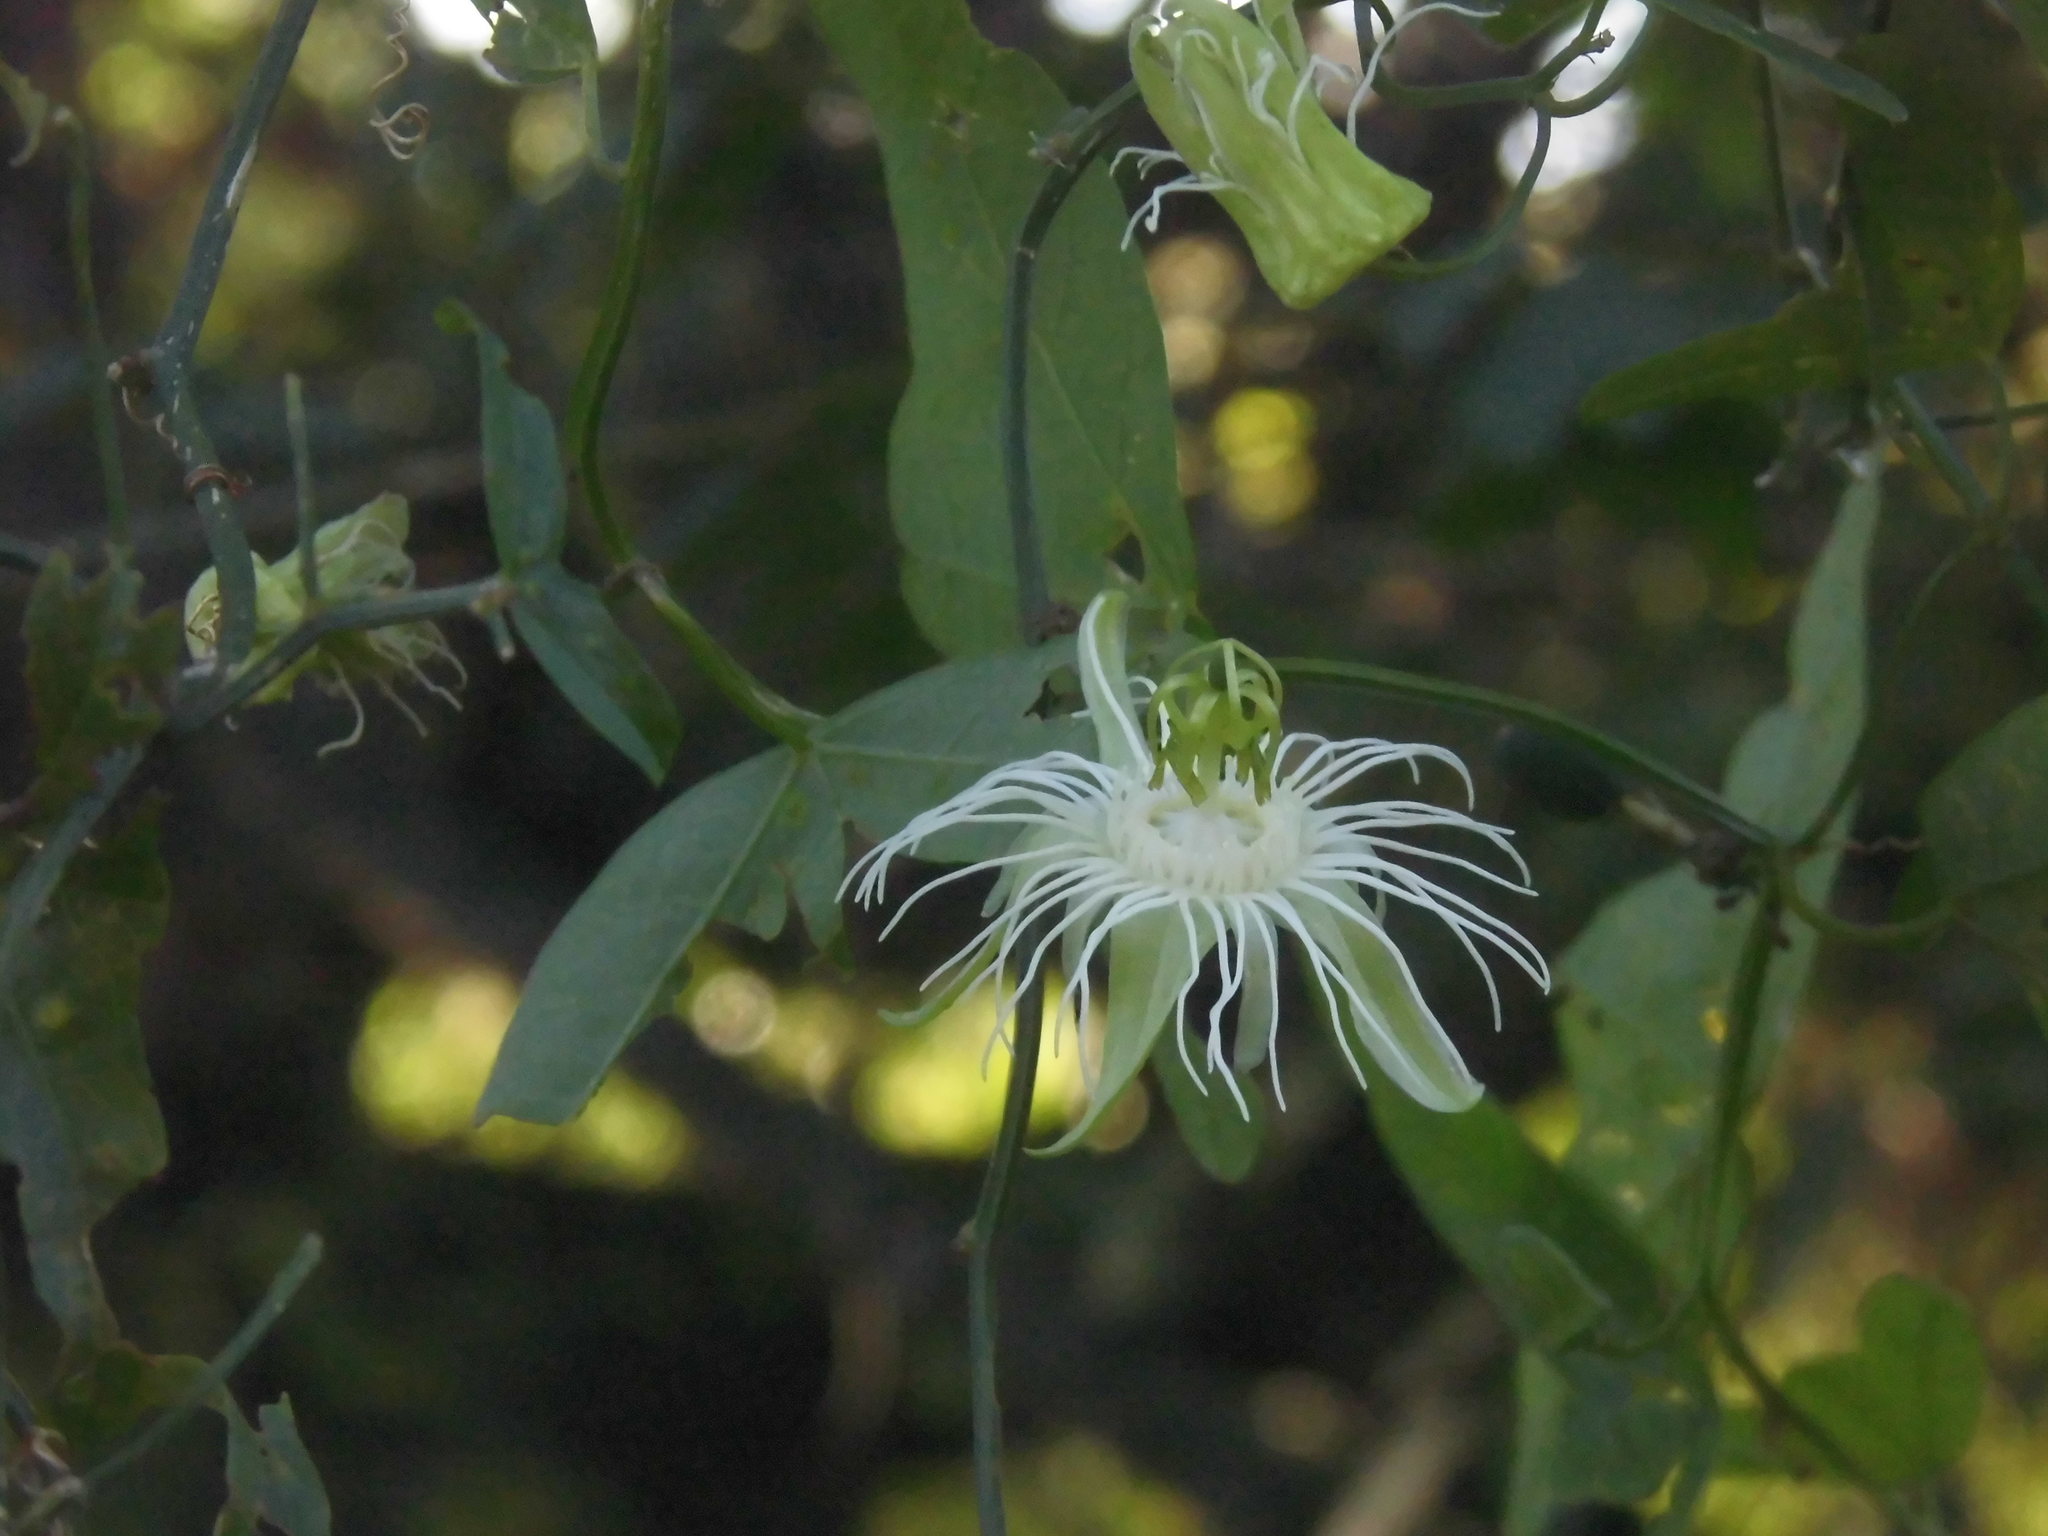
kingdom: Plantae
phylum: Tracheophyta
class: Magnoliopsida
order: Malpighiales
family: Passifloraceae
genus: Passiflora
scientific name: Passiflora misera
